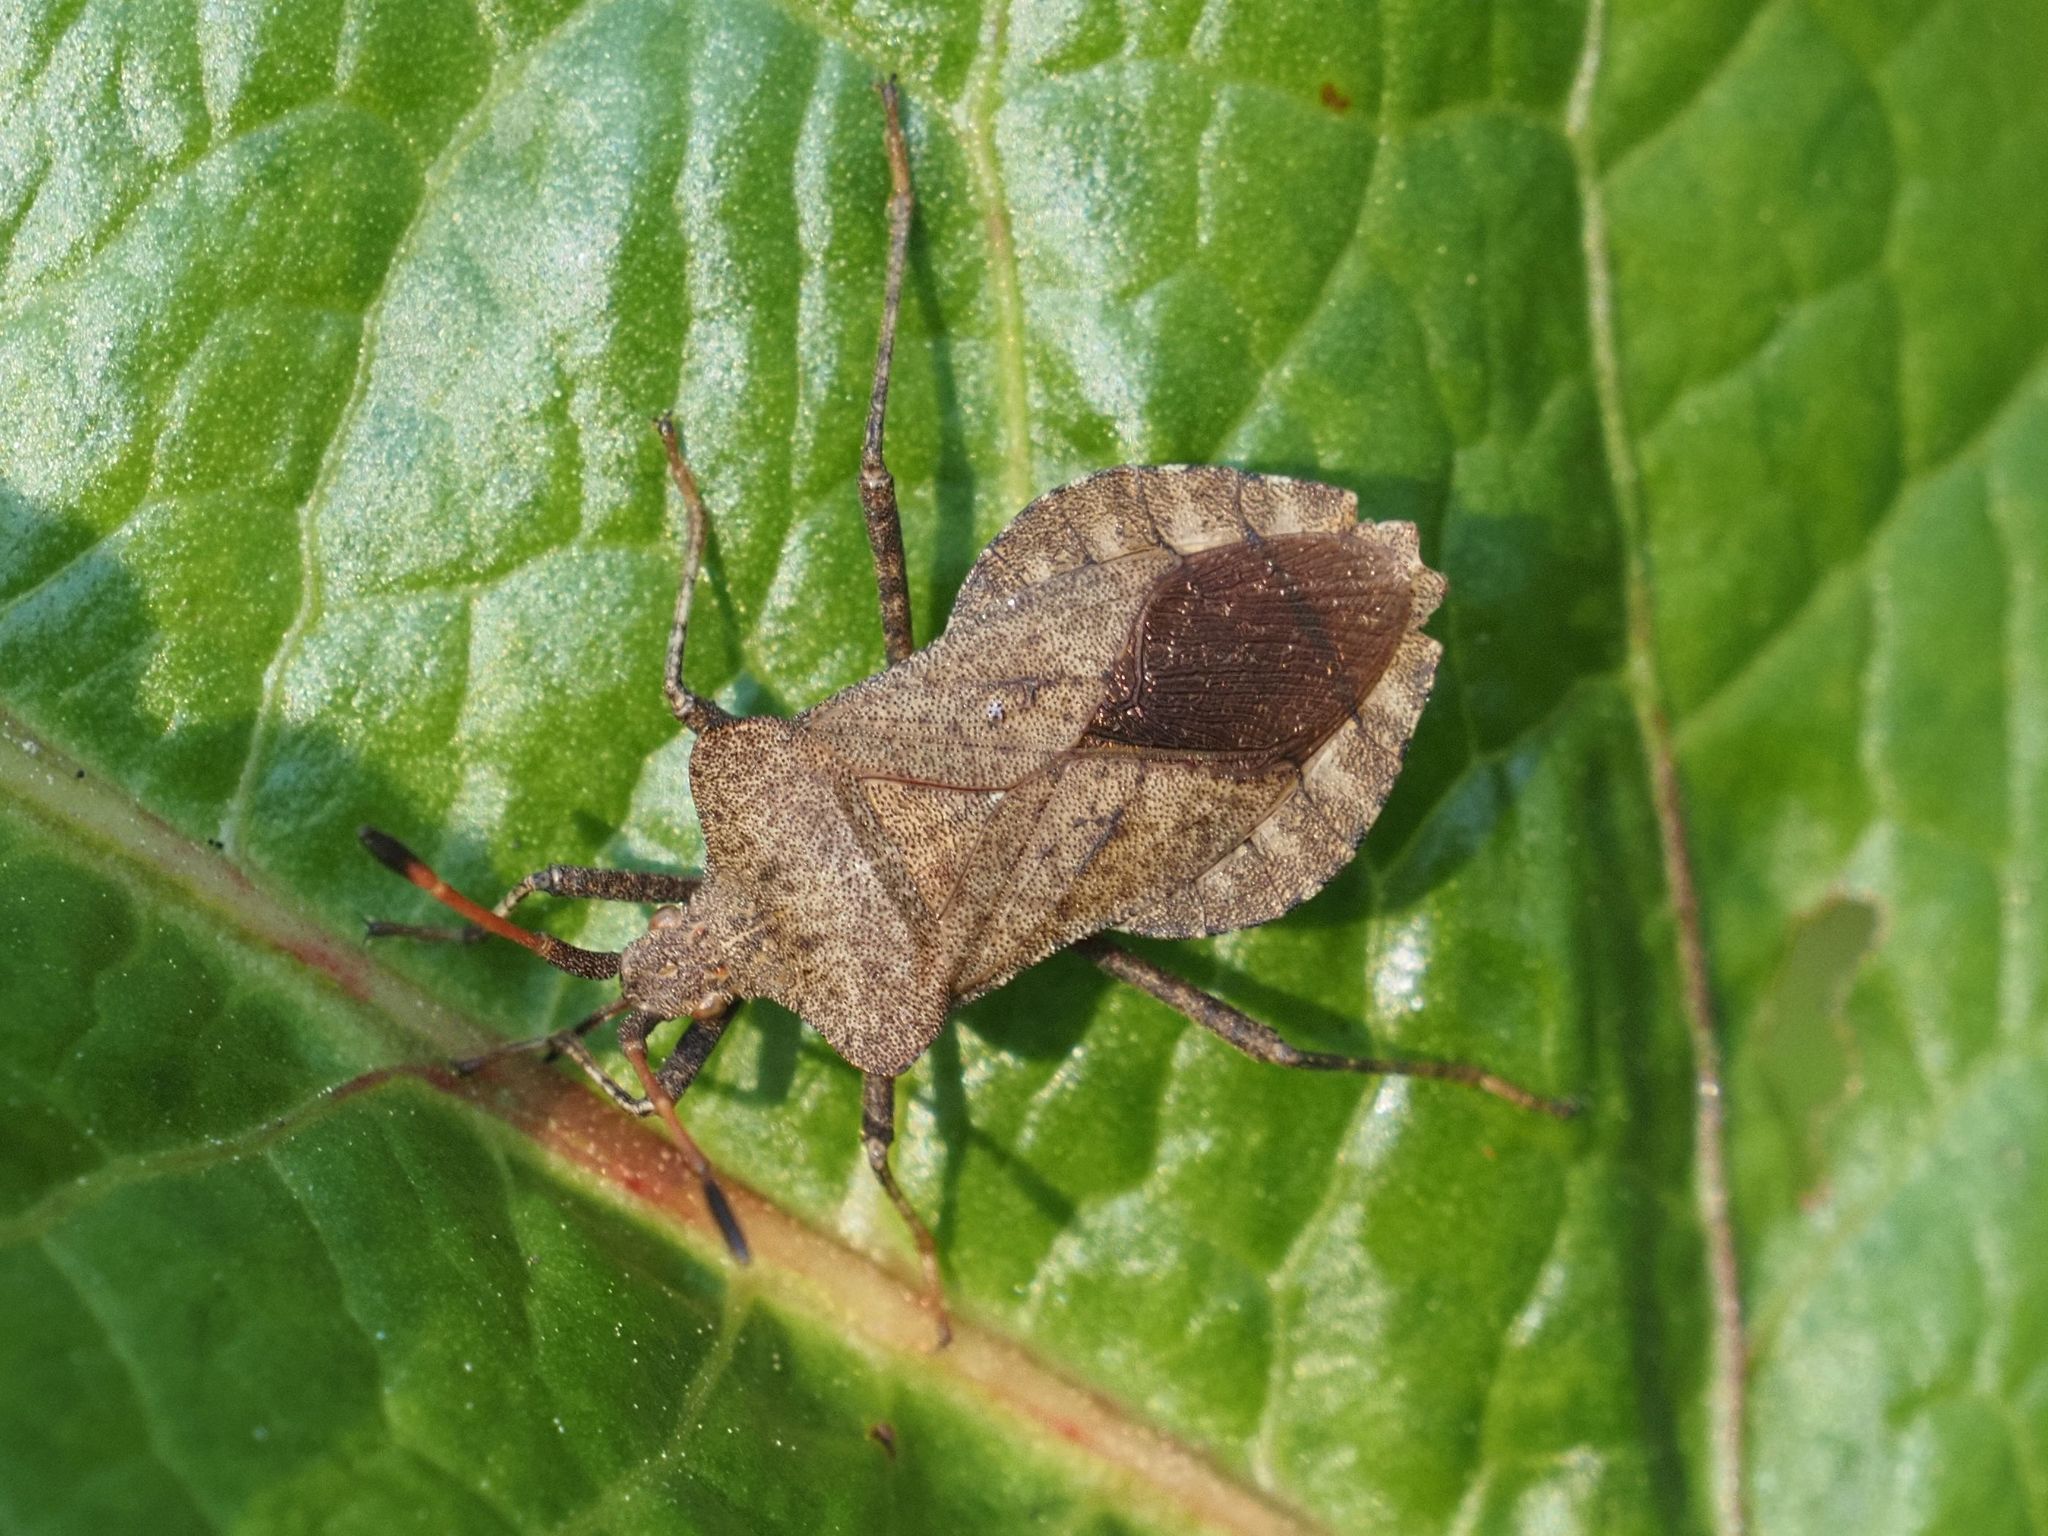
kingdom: Animalia
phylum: Arthropoda
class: Insecta
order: Hemiptera
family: Coreidae
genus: Coreus
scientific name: Coreus marginatus
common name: Dock bug
